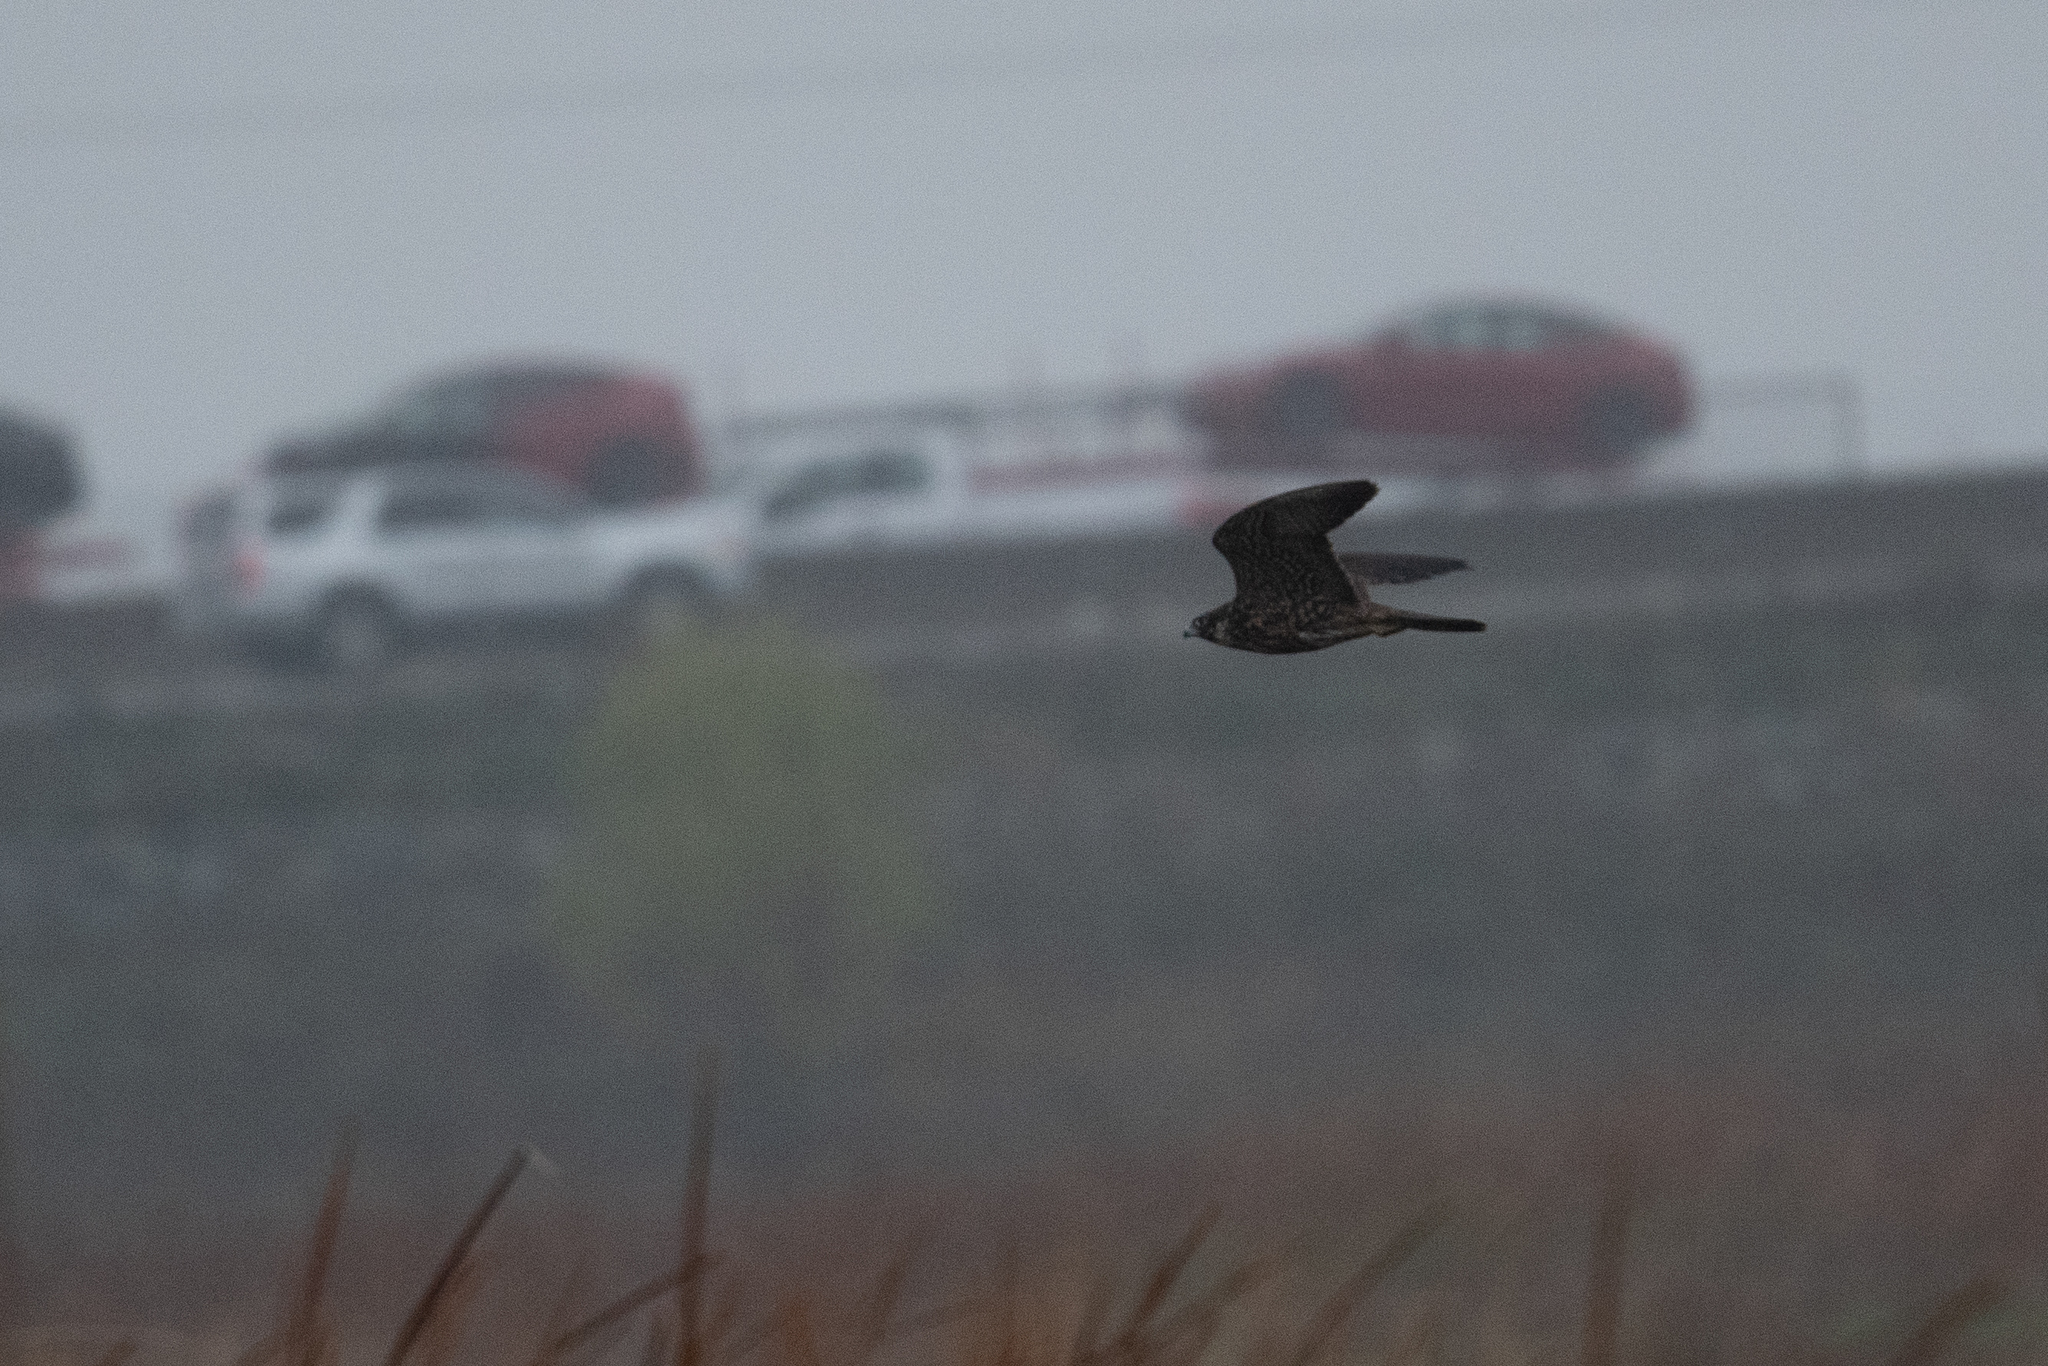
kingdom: Animalia
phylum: Chordata
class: Aves
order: Falconiformes
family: Falconidae
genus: Falco
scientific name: Falco peregrinus
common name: Peregrine falcon
